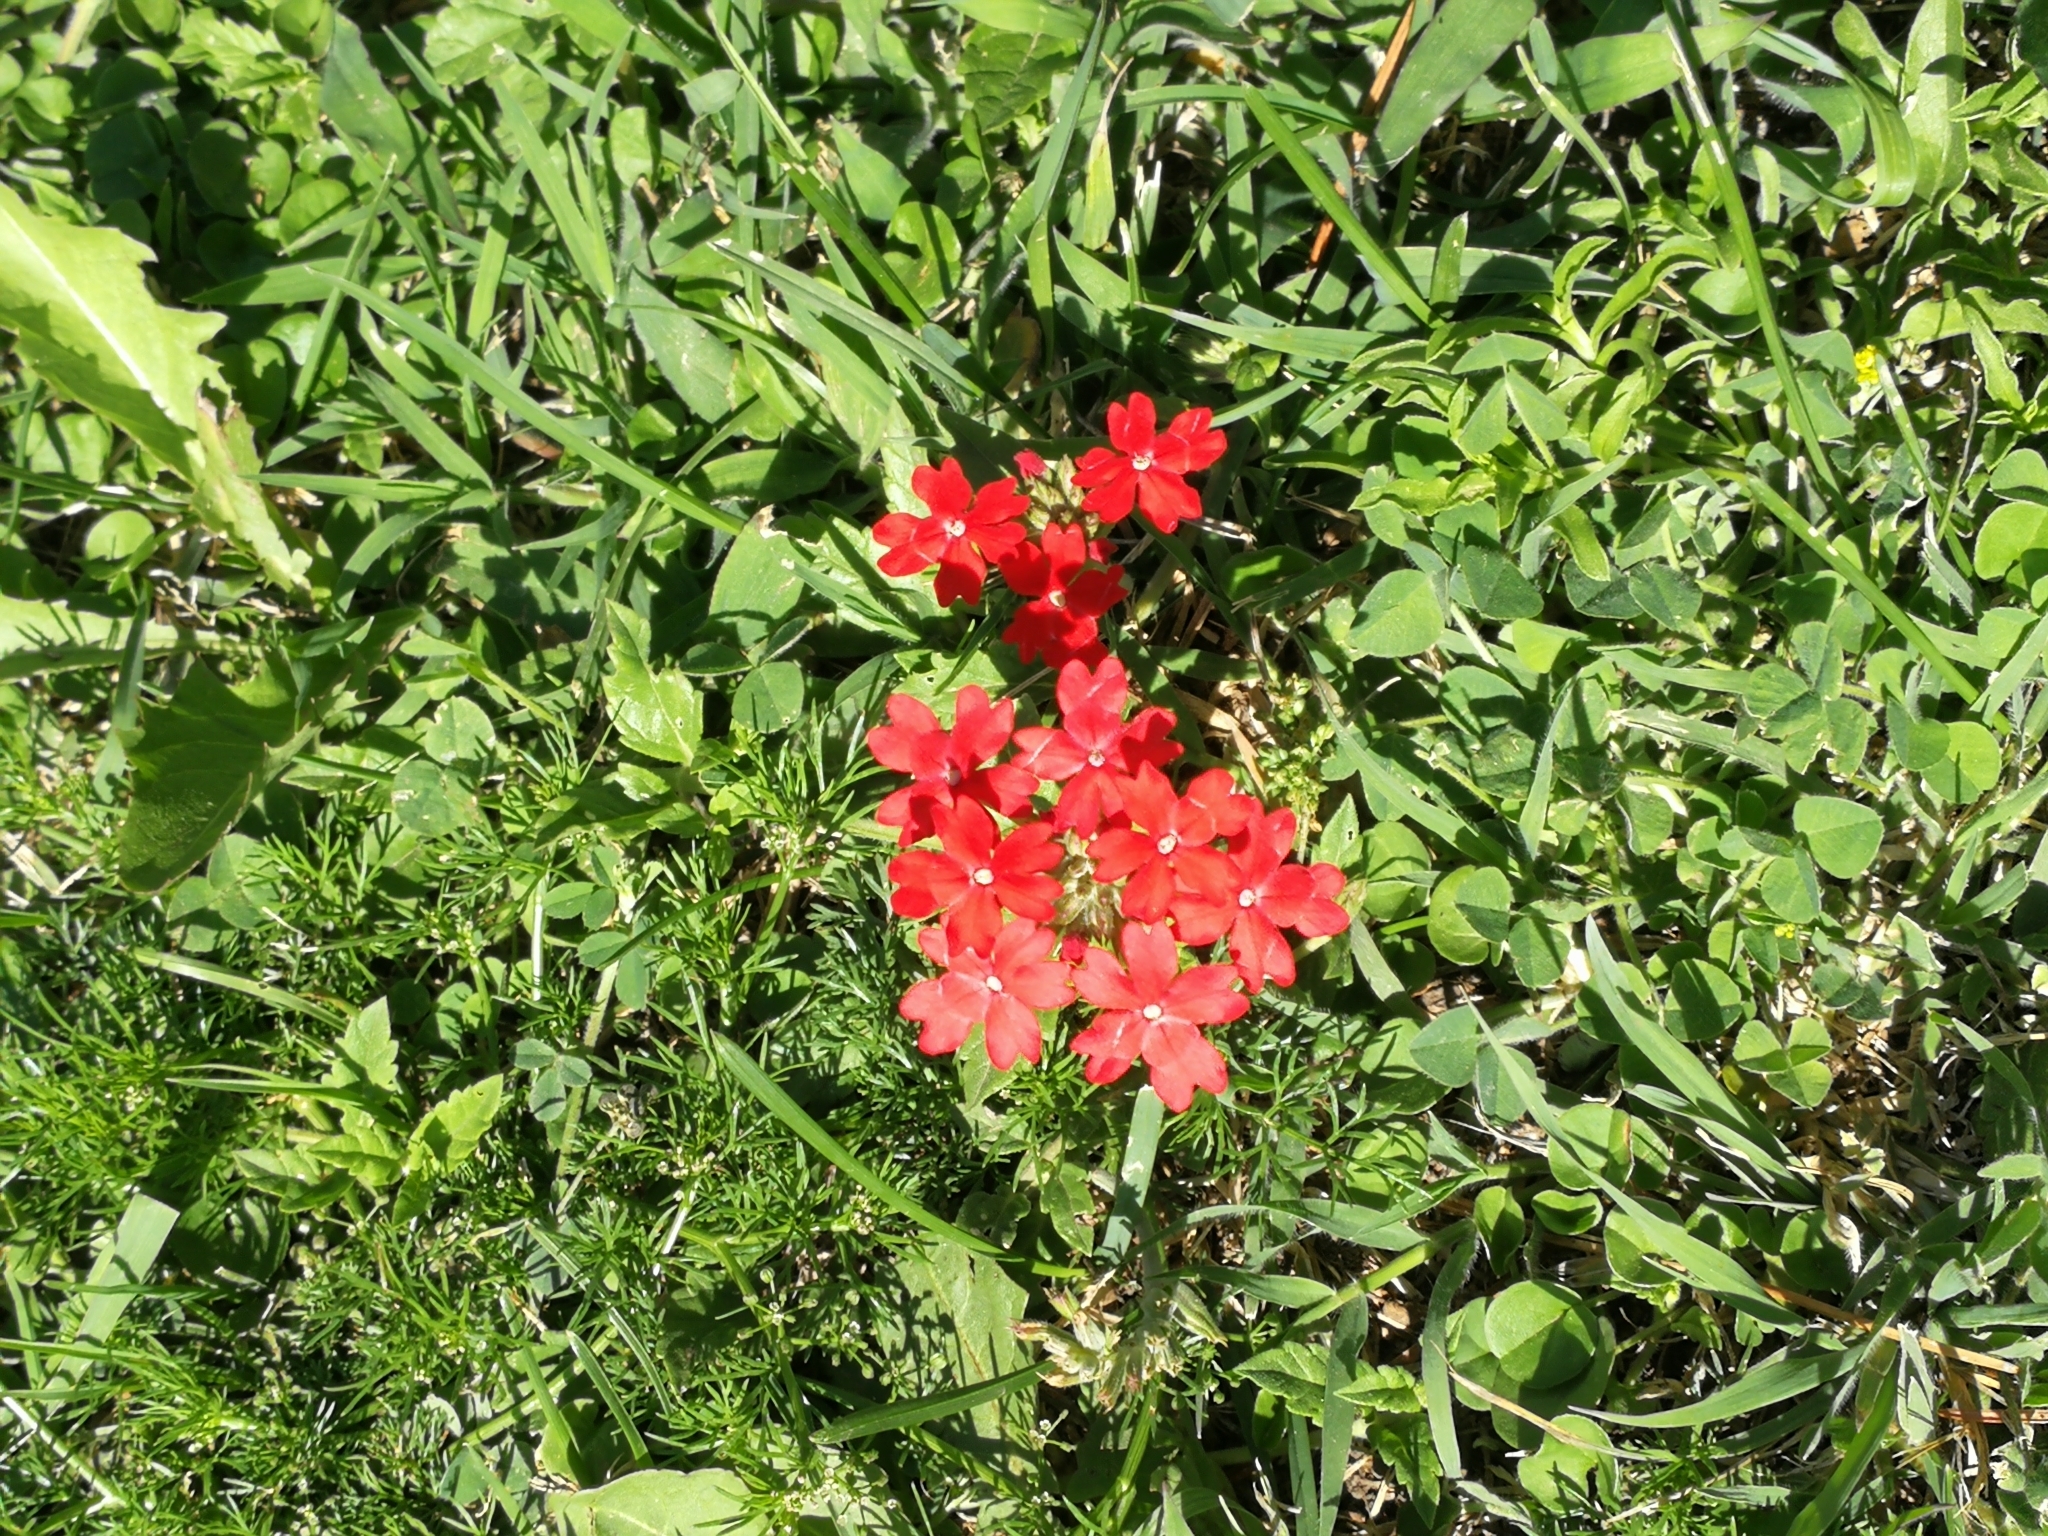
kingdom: Plantae
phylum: Tracheophyta
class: Magnoliopsida
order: Lamiales
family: Verbenaceae
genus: Verbena
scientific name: Verbena peruviana
